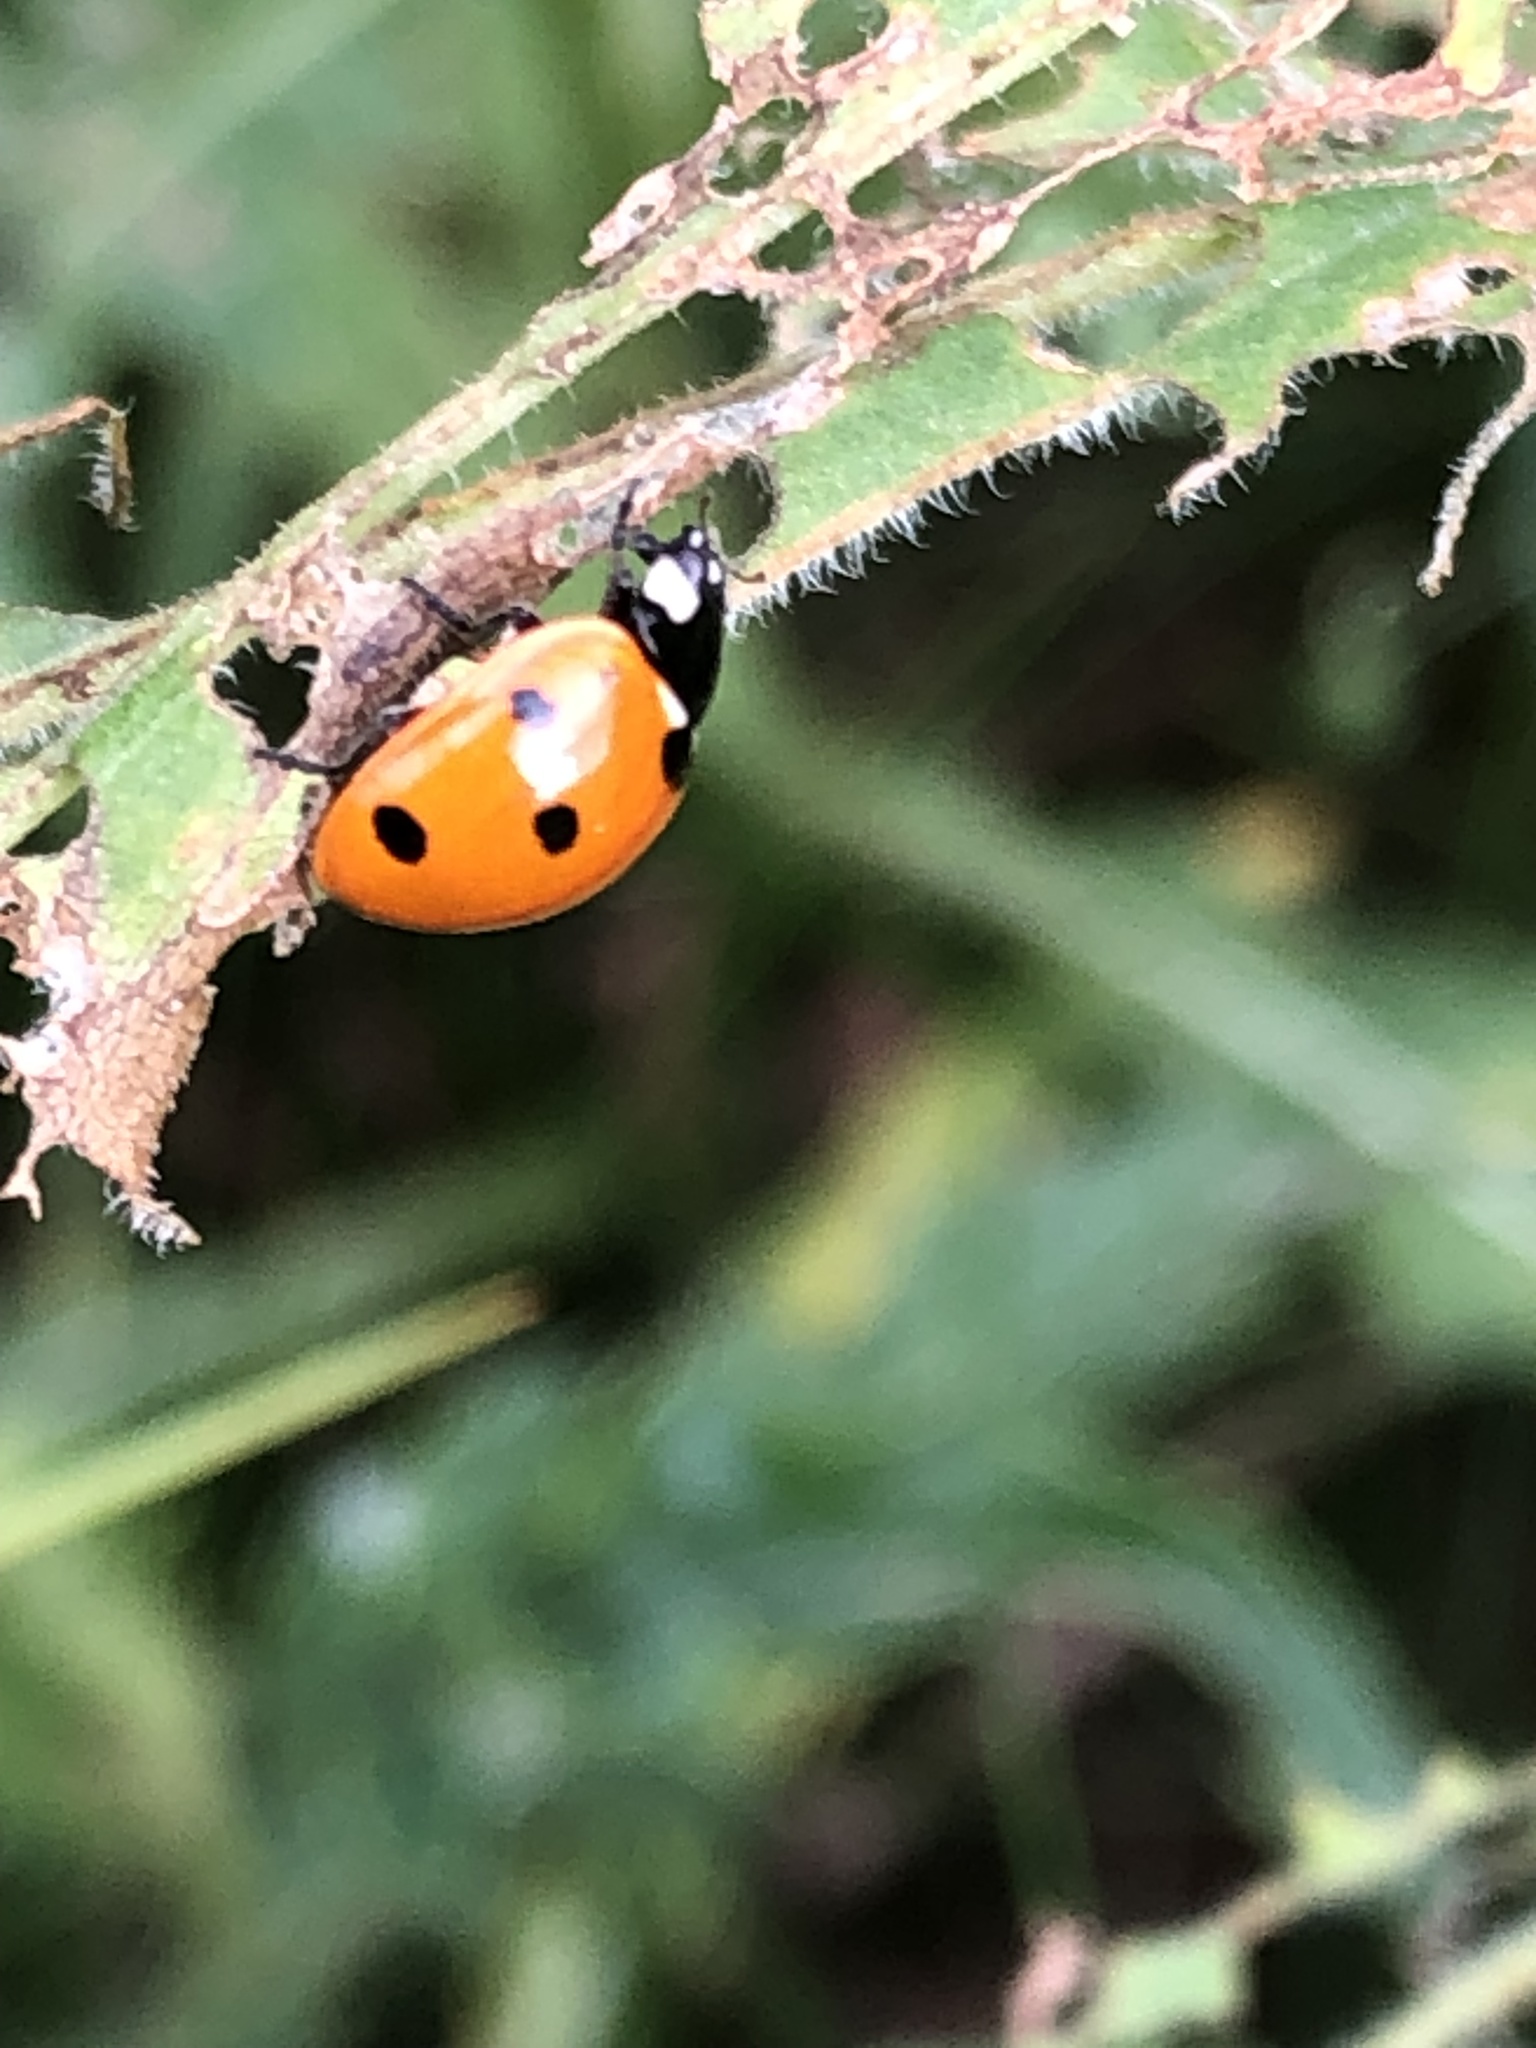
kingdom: Animalia
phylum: Arthropoda
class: Insecta
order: Coleoptera
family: Coccinellidae
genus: Coccinella
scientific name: Coccinella septempunctata
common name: Sevenspotted lady beetle
